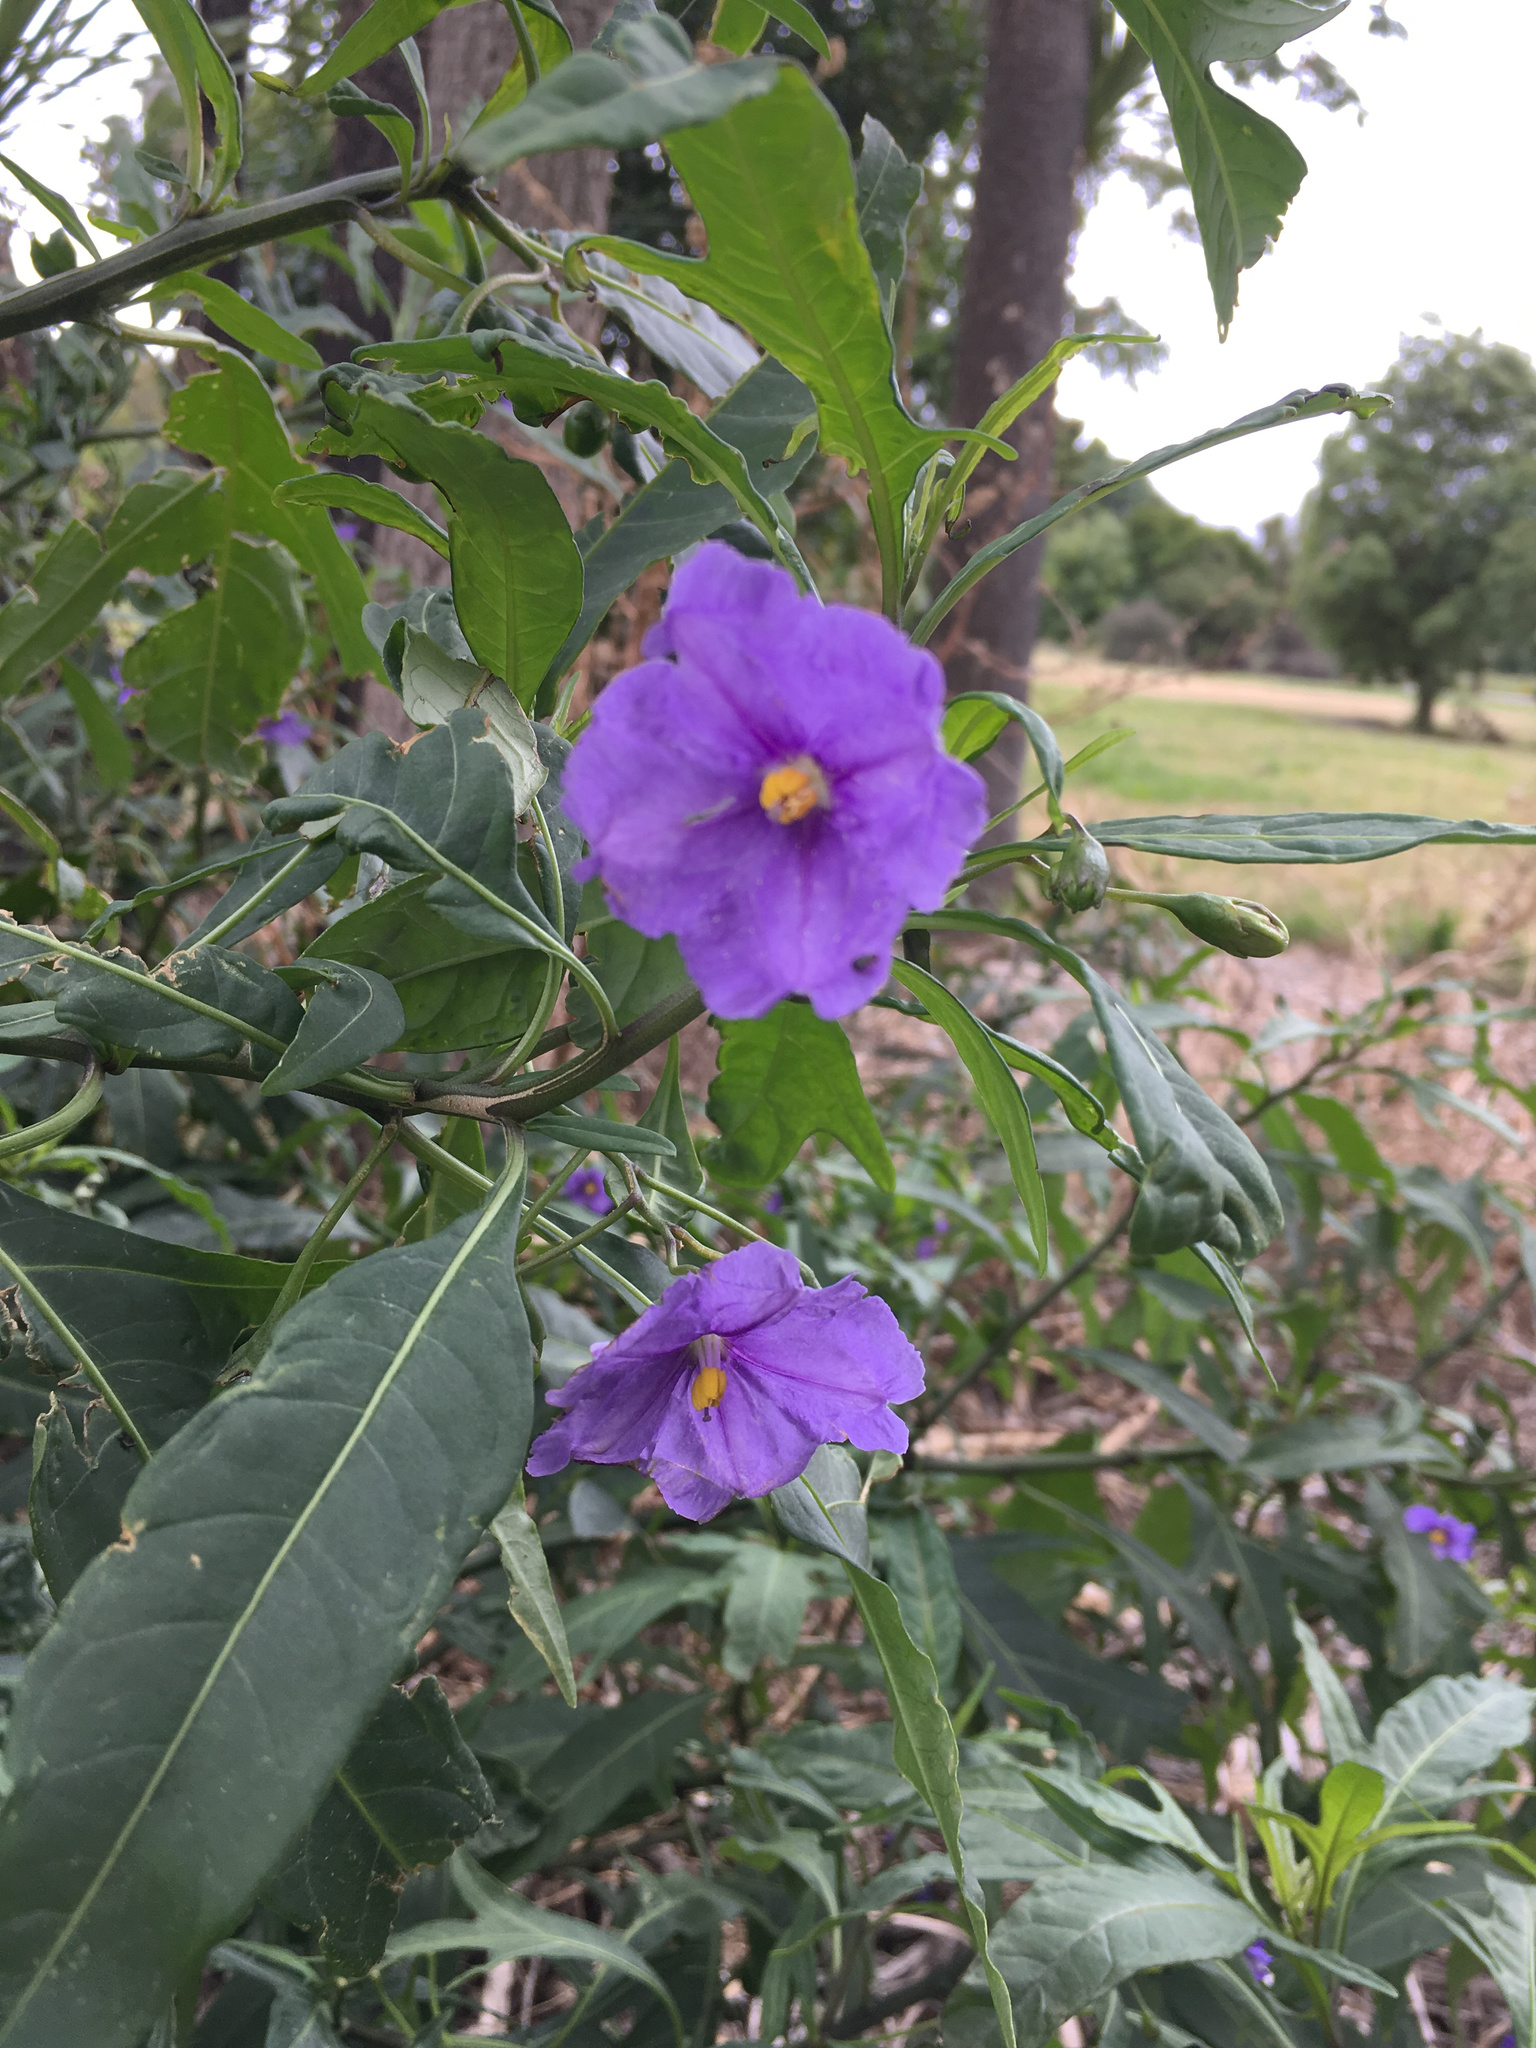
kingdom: Plantae
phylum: Tracheophyta
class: Magnoliopsida
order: Solanales
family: Solanaceae
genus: Solanum
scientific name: Solanum laciniatum
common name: Kangaroo-apple
